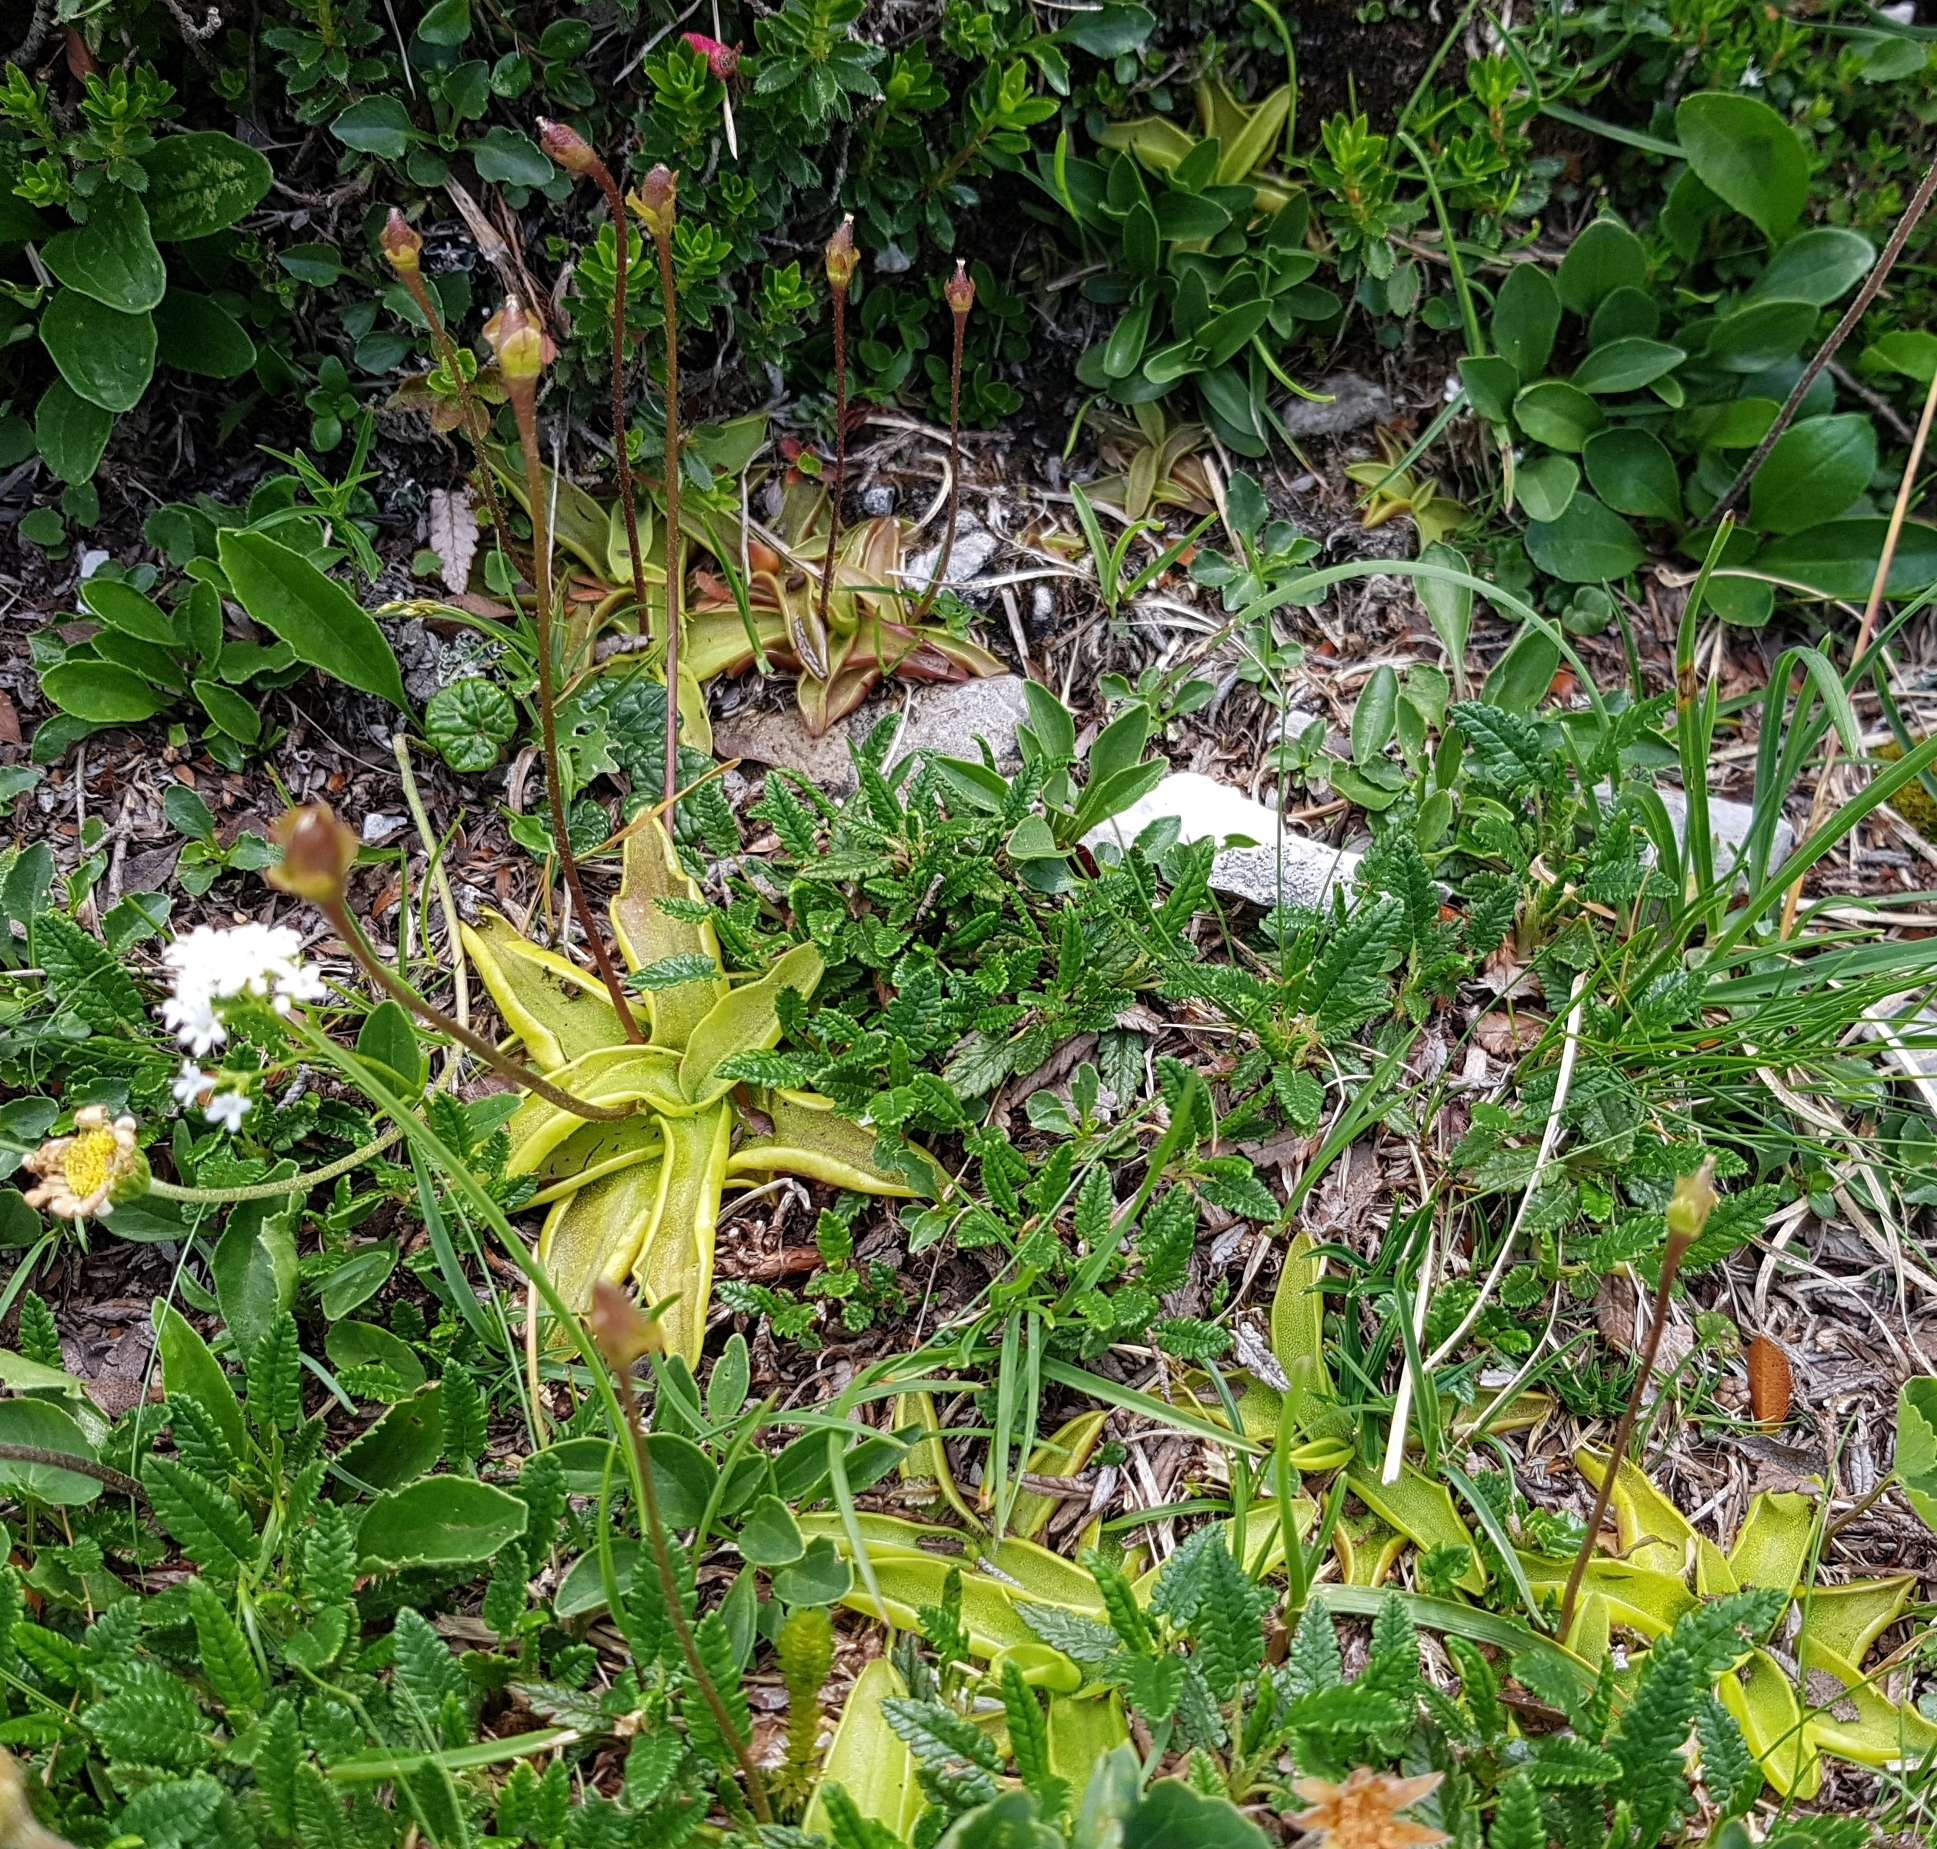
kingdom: Plantae
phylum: Tracheophyta
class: Magnoliopsida
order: Lamiales
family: Lentibulariaceae
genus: Pinguicula
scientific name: Pinguicula alpina
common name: Alpine butterwort
